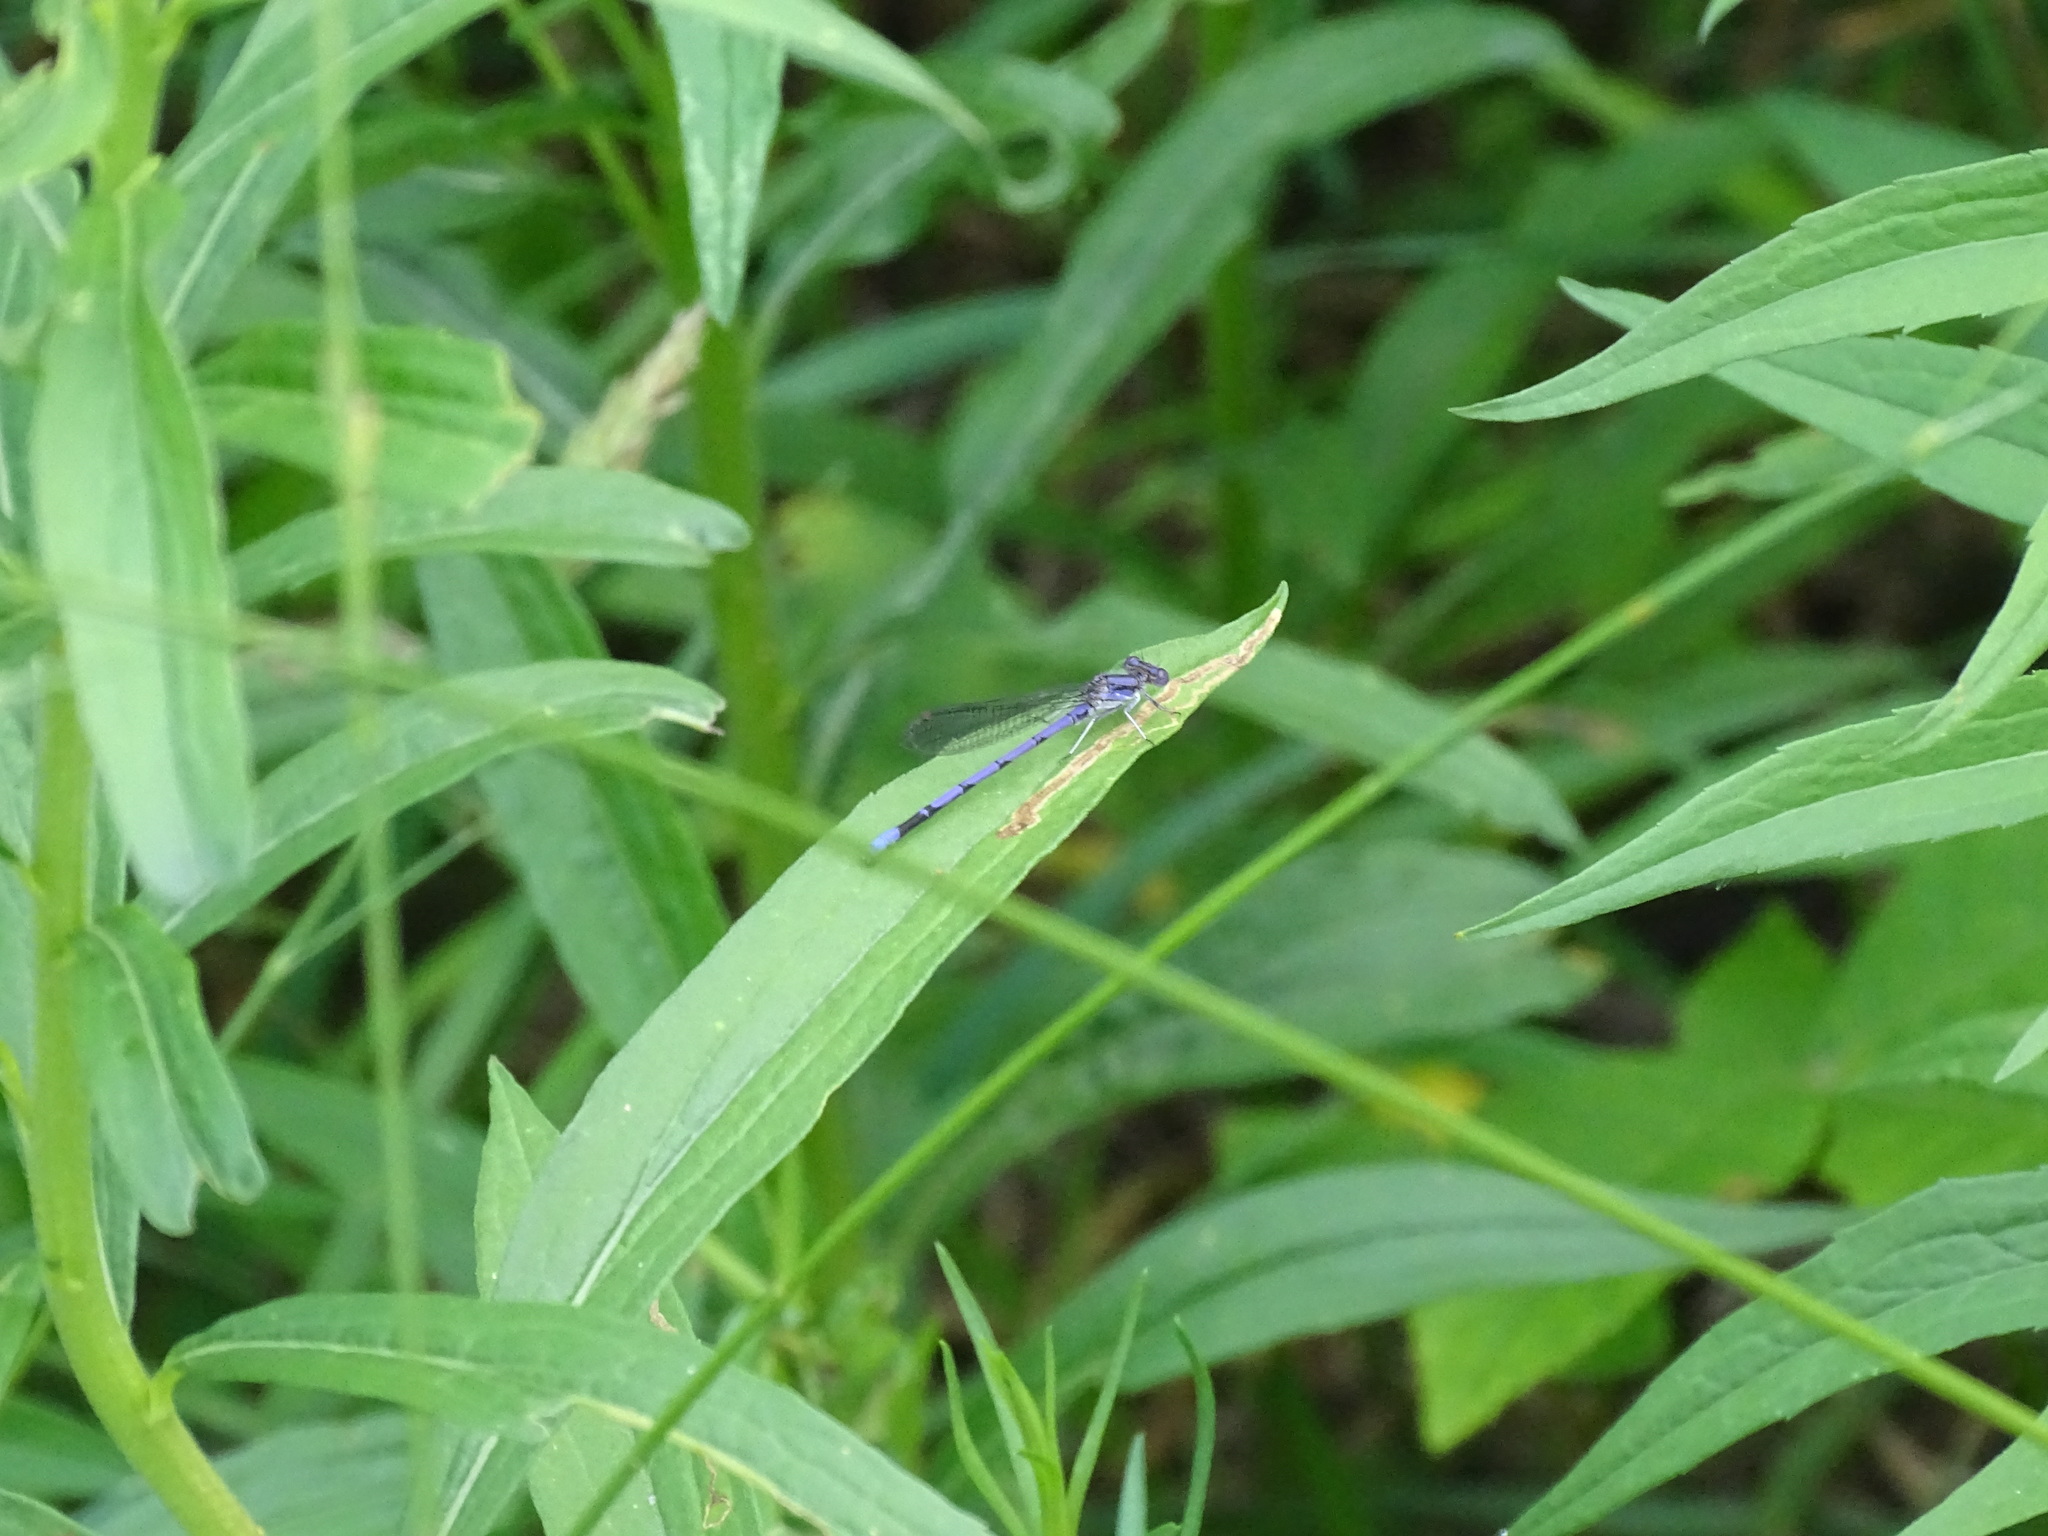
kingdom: Animalia
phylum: Arthropoda
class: Insecta
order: Odonata
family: Coenagrionidae
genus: Argia
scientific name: Argia fumipennis
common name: Variable dancer
